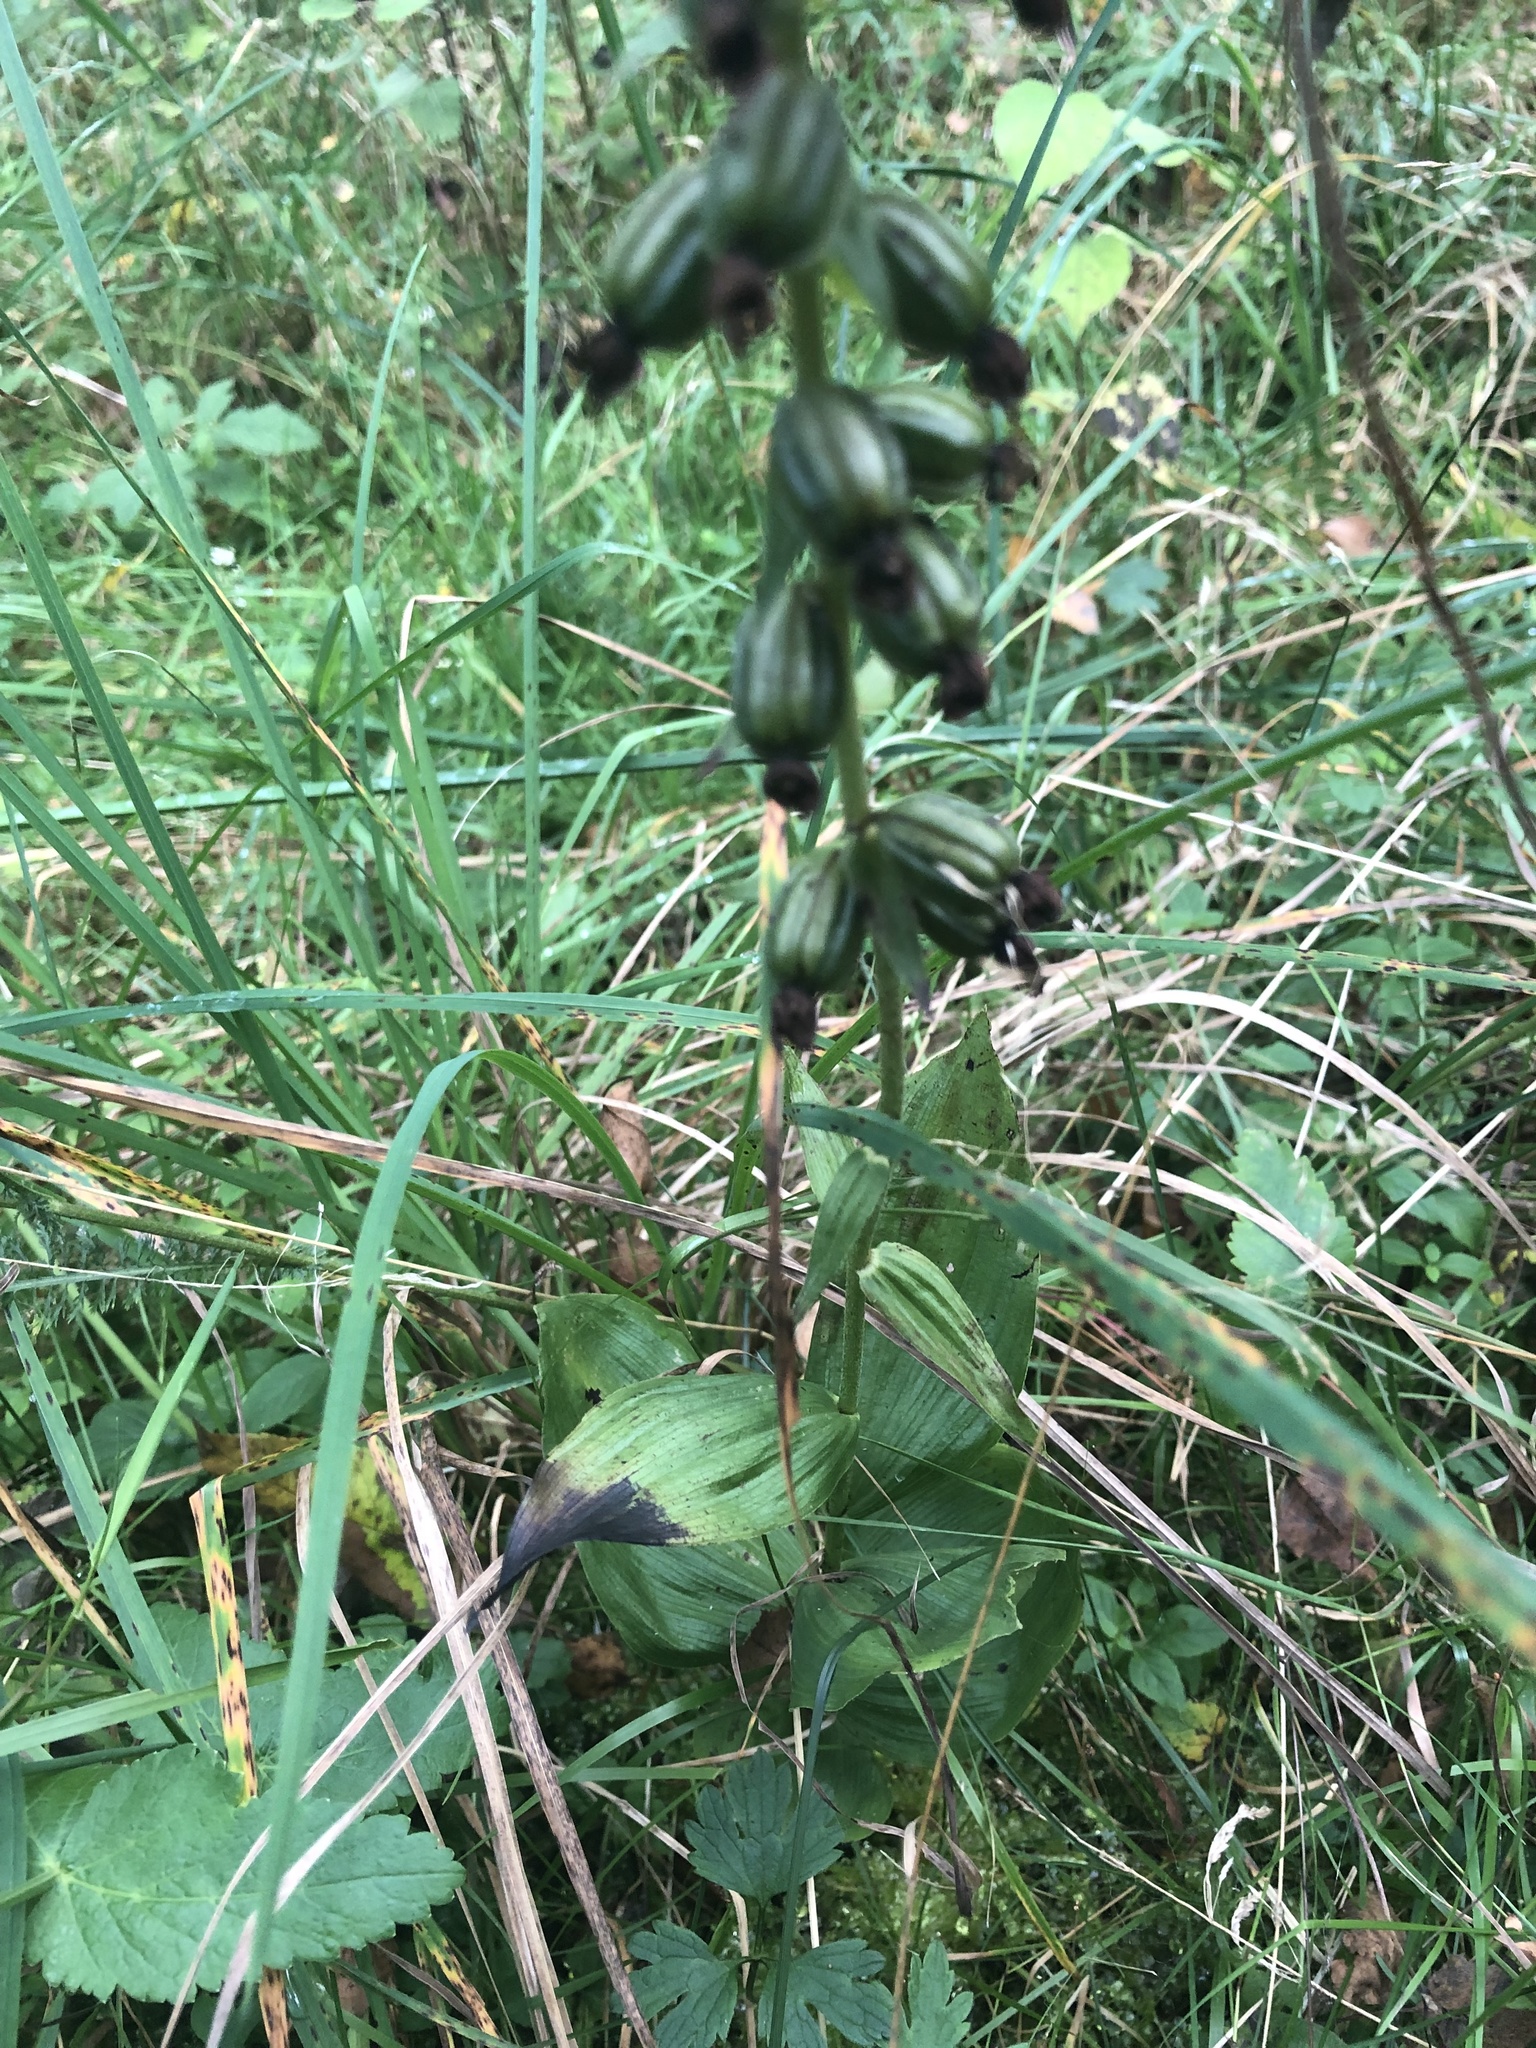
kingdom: Plantae
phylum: Tracheophyta
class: Liliopsida
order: Asparagales
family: Orchidaceae
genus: Epipactis
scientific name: Epipactis helleborine
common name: Broad-leaved helleborine
